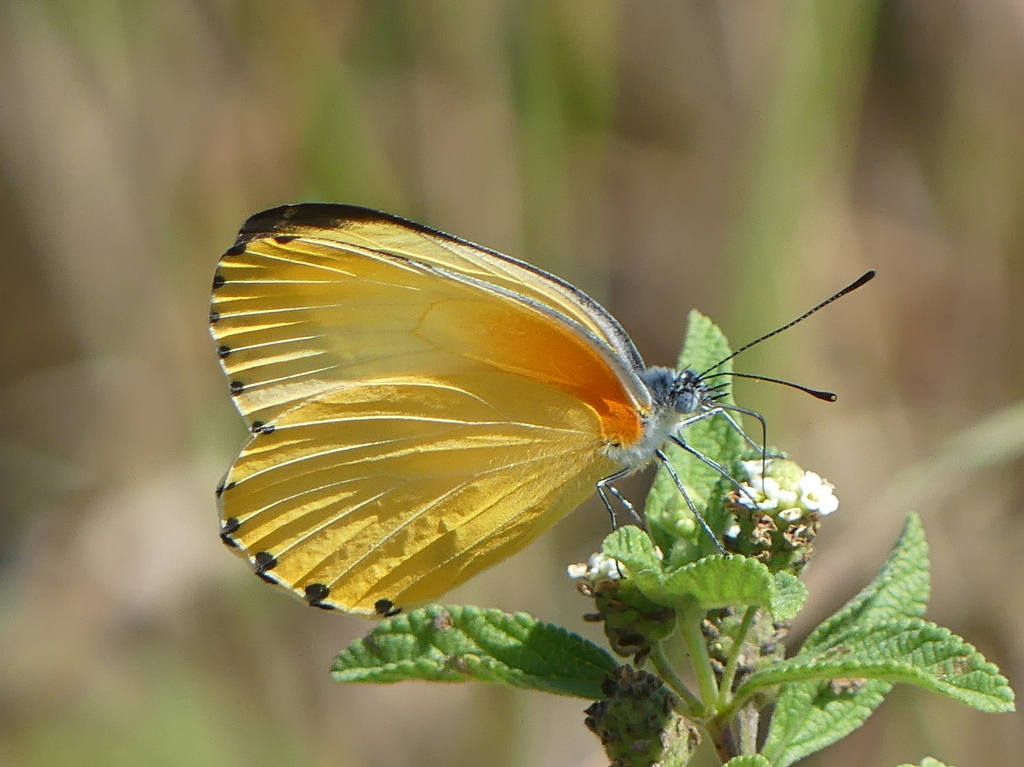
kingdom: Animalia
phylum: Arthropoda
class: Insecta
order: Lepidoptera
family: Pieridae
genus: Mylothris
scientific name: Mylothris agathina
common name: Eastern dotted border
